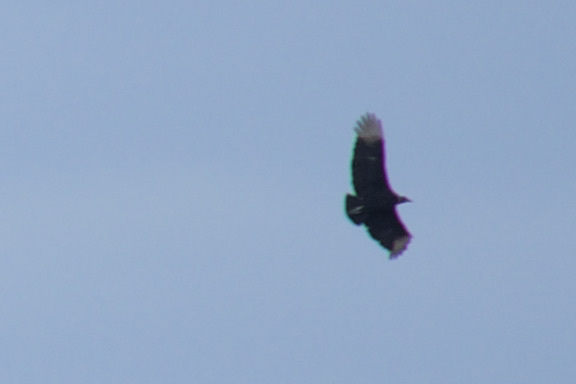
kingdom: Animalia
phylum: Chordata
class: Aves
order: Accipitriformes
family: Cathartidae
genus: Coragyps
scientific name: Coragyps atratus
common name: Black vulture
